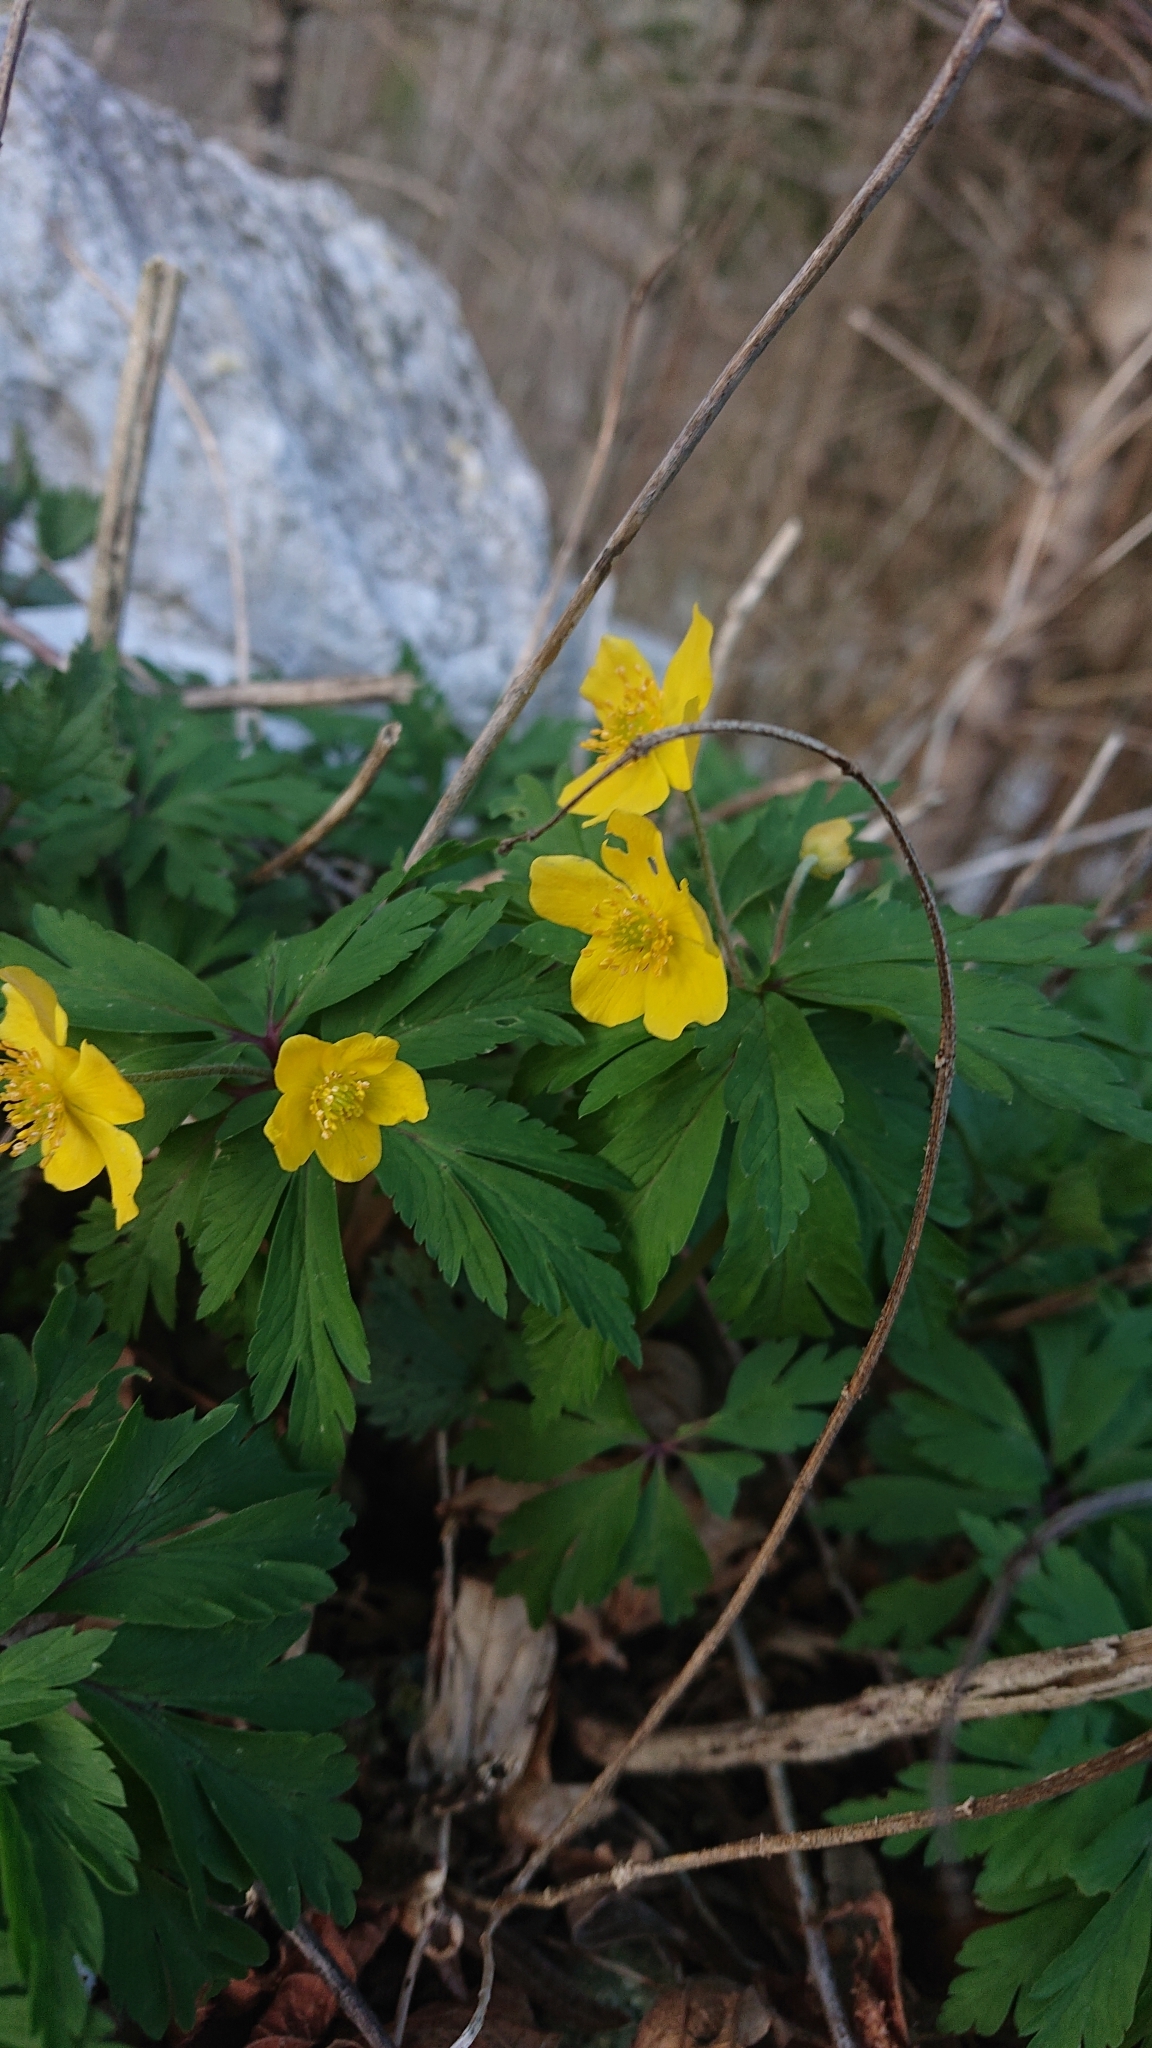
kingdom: Plantae
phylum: Tracheophyta
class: Magnoliopsida
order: Ranunculales
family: Ranunculaceae
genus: Anemone
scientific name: Anemone ranunculoides
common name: Yellow anemone
